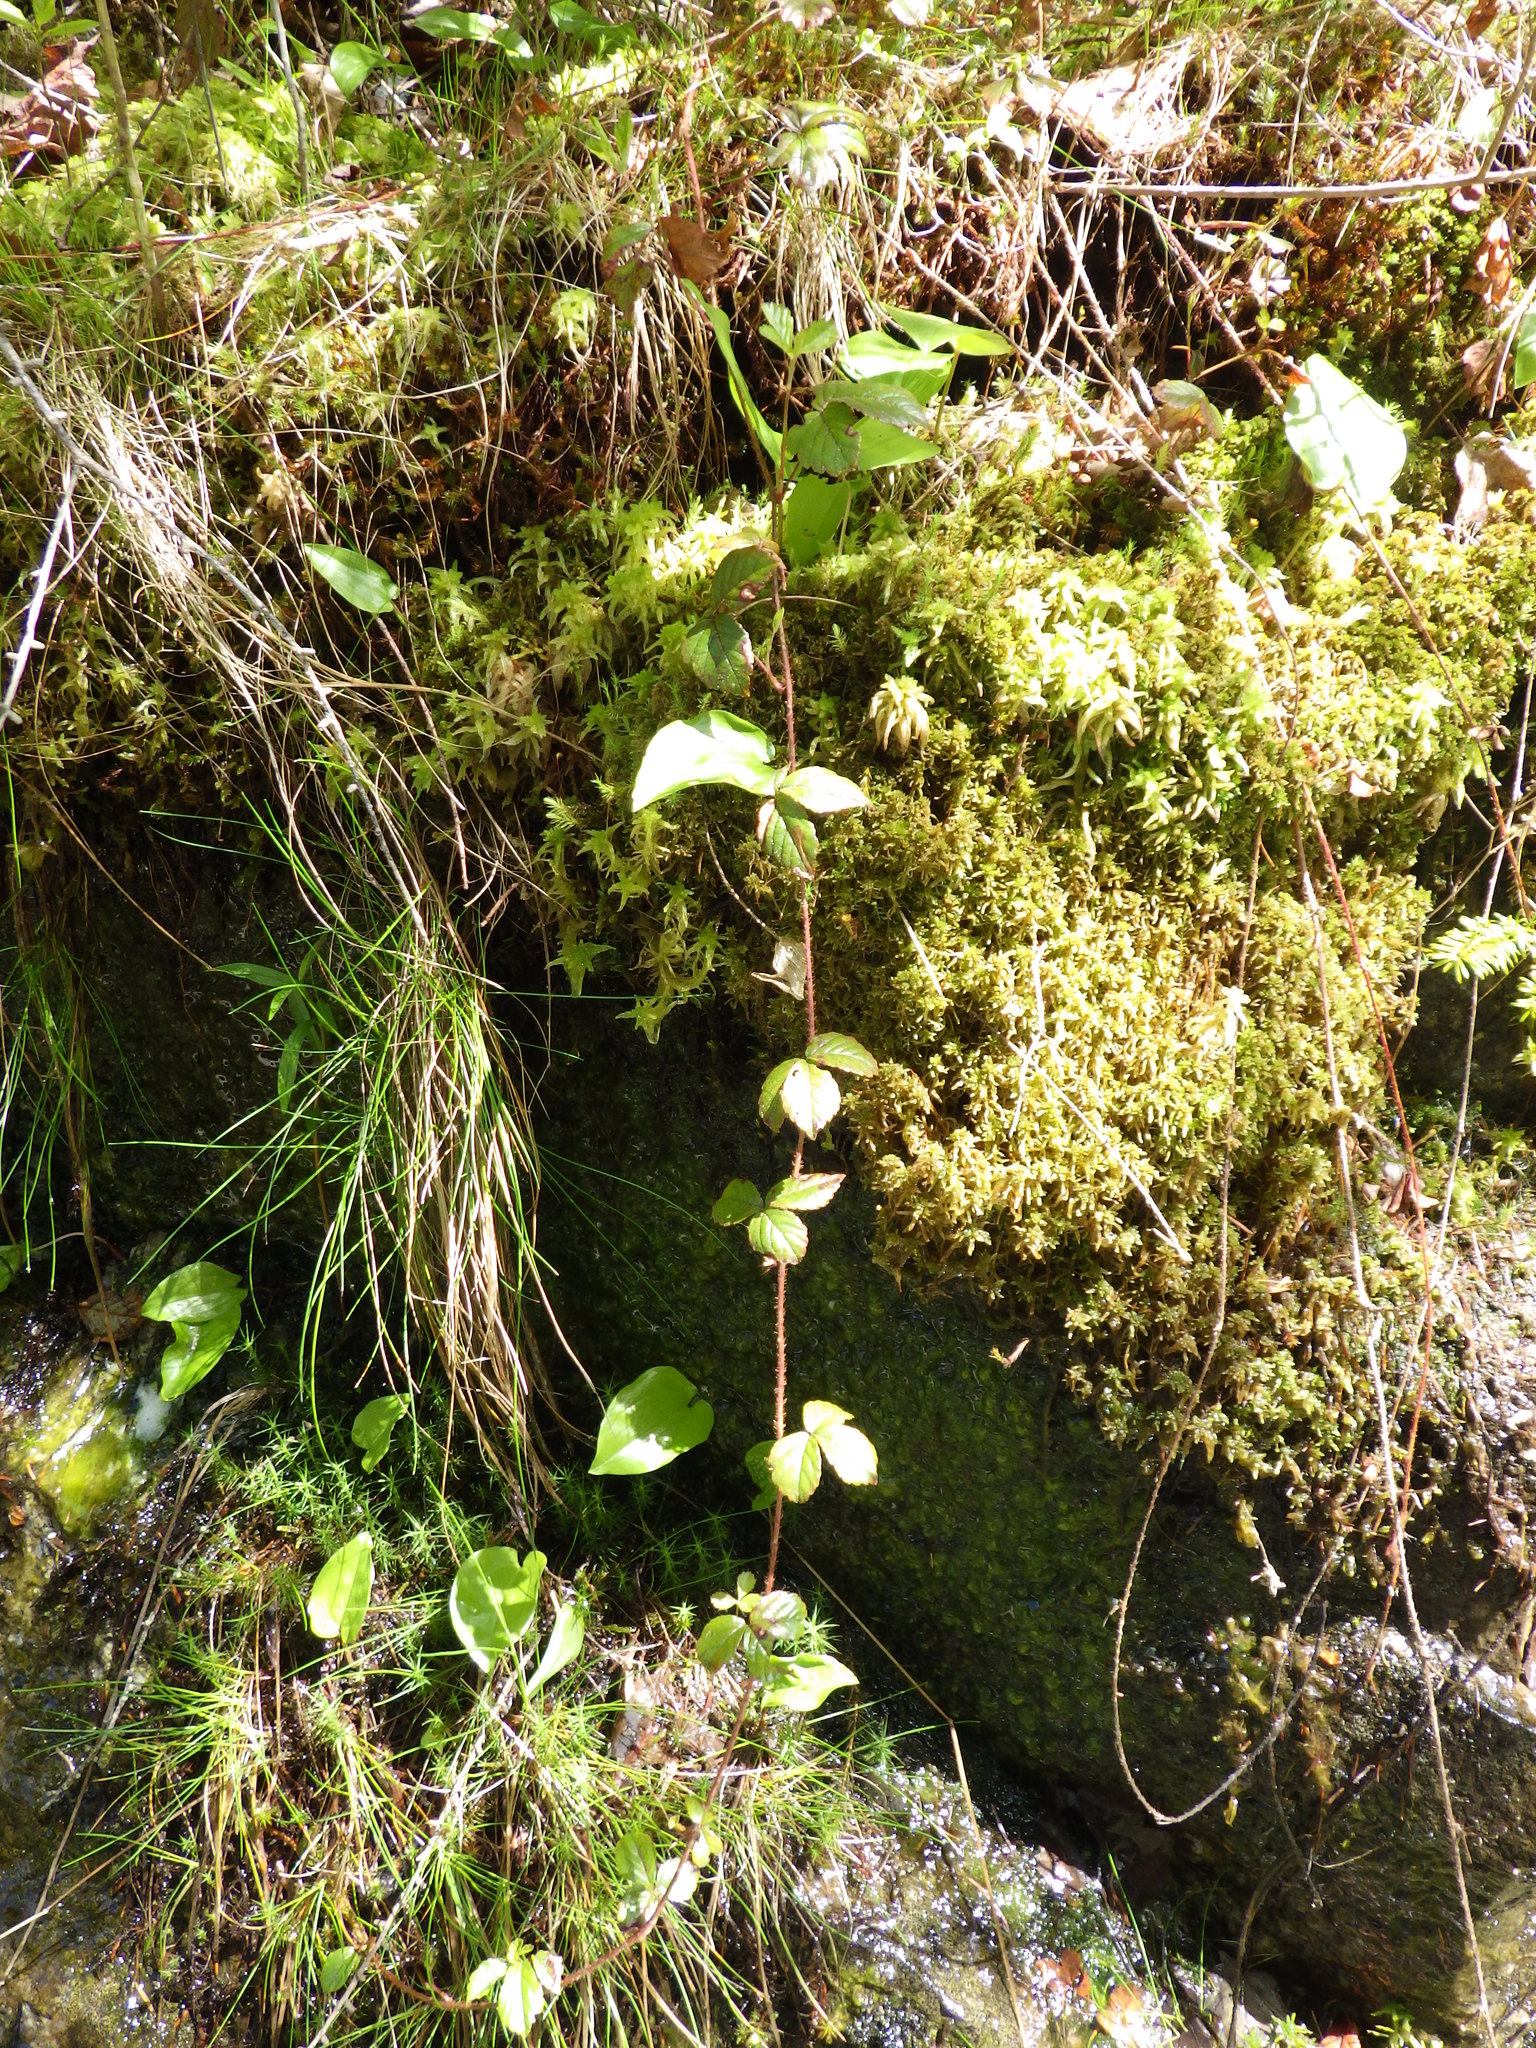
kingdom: Plantae
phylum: Tracheophyta
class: Magnoliopsida
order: Rosales
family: Rosaceae
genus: Rubus
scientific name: Rubus hispidus
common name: Running blackberry
